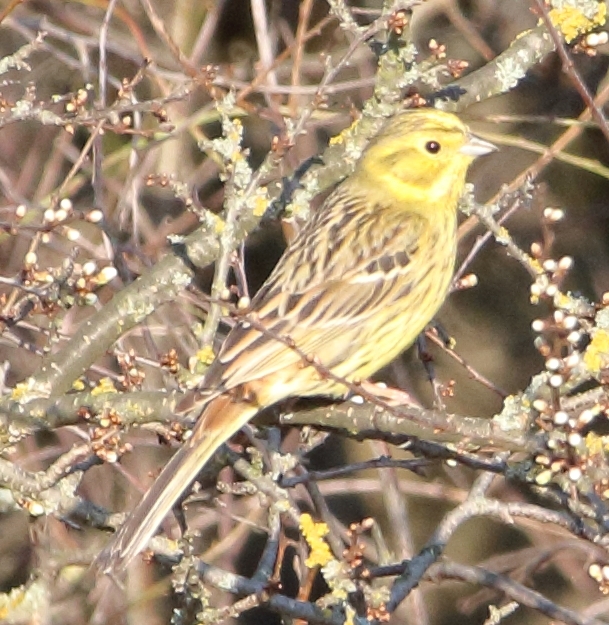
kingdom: Animalia
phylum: Chordata
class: Aves
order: Passeriformes
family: Emberizidae
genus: Emberiza
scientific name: Emberiza citrinella
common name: Yellowhammer
